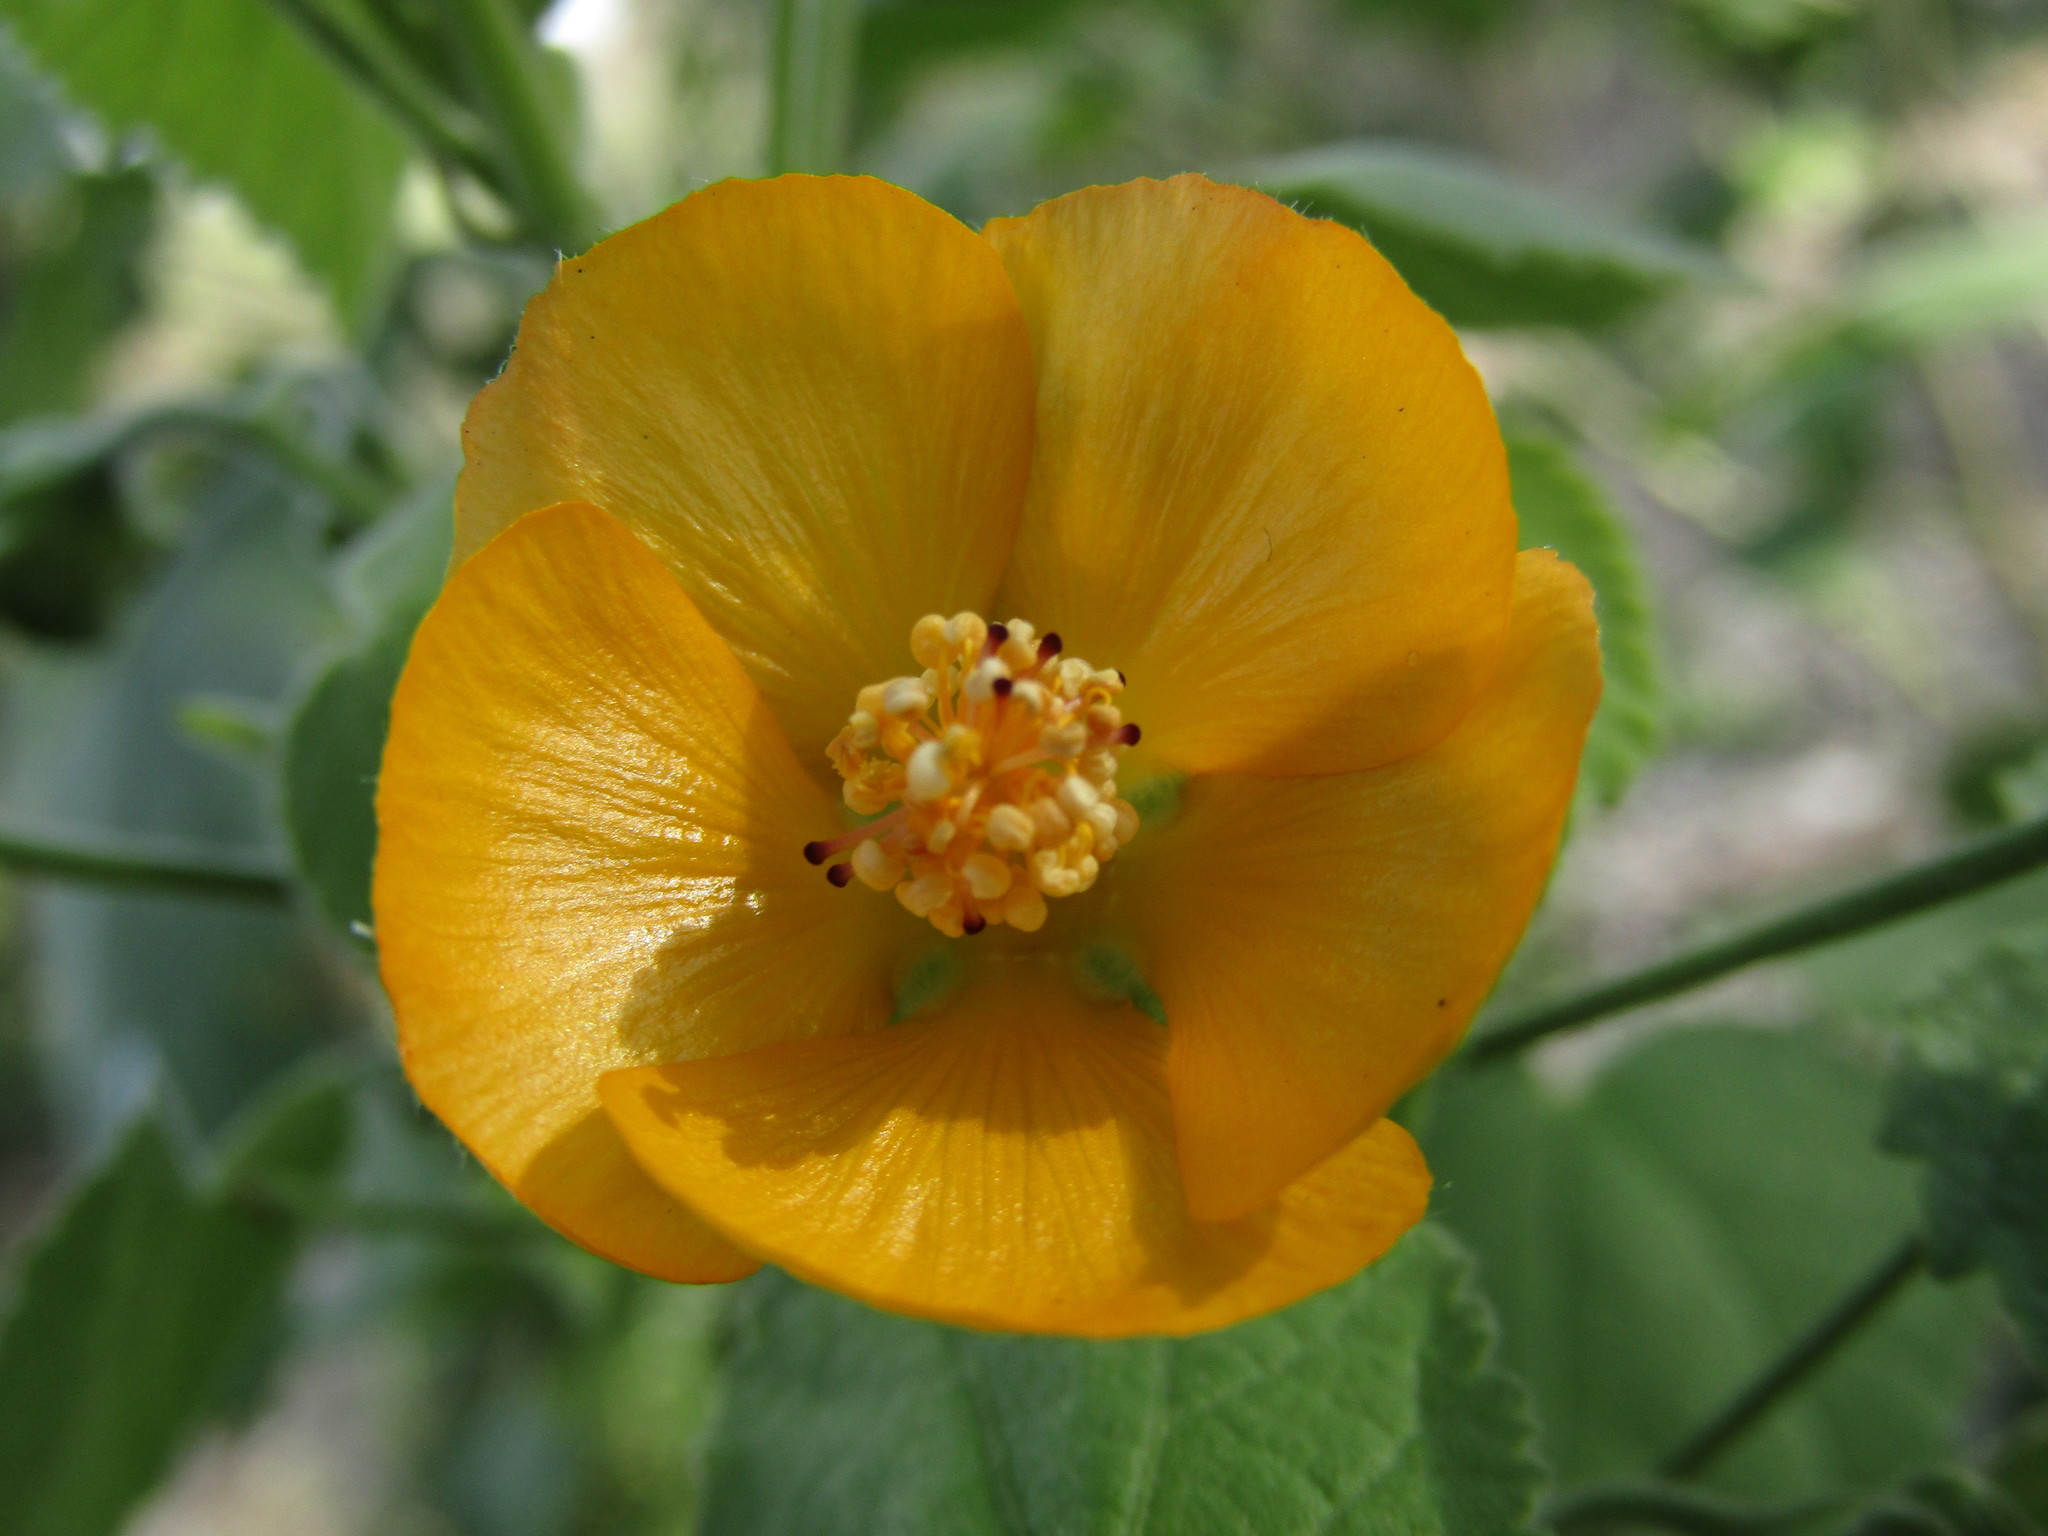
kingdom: Plantae
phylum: Tracheophyta
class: Magnoliopsida
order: Malvales
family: Malvaceae
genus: Abutilon
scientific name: Abutilon grandifolium
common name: Hairy abutilon
